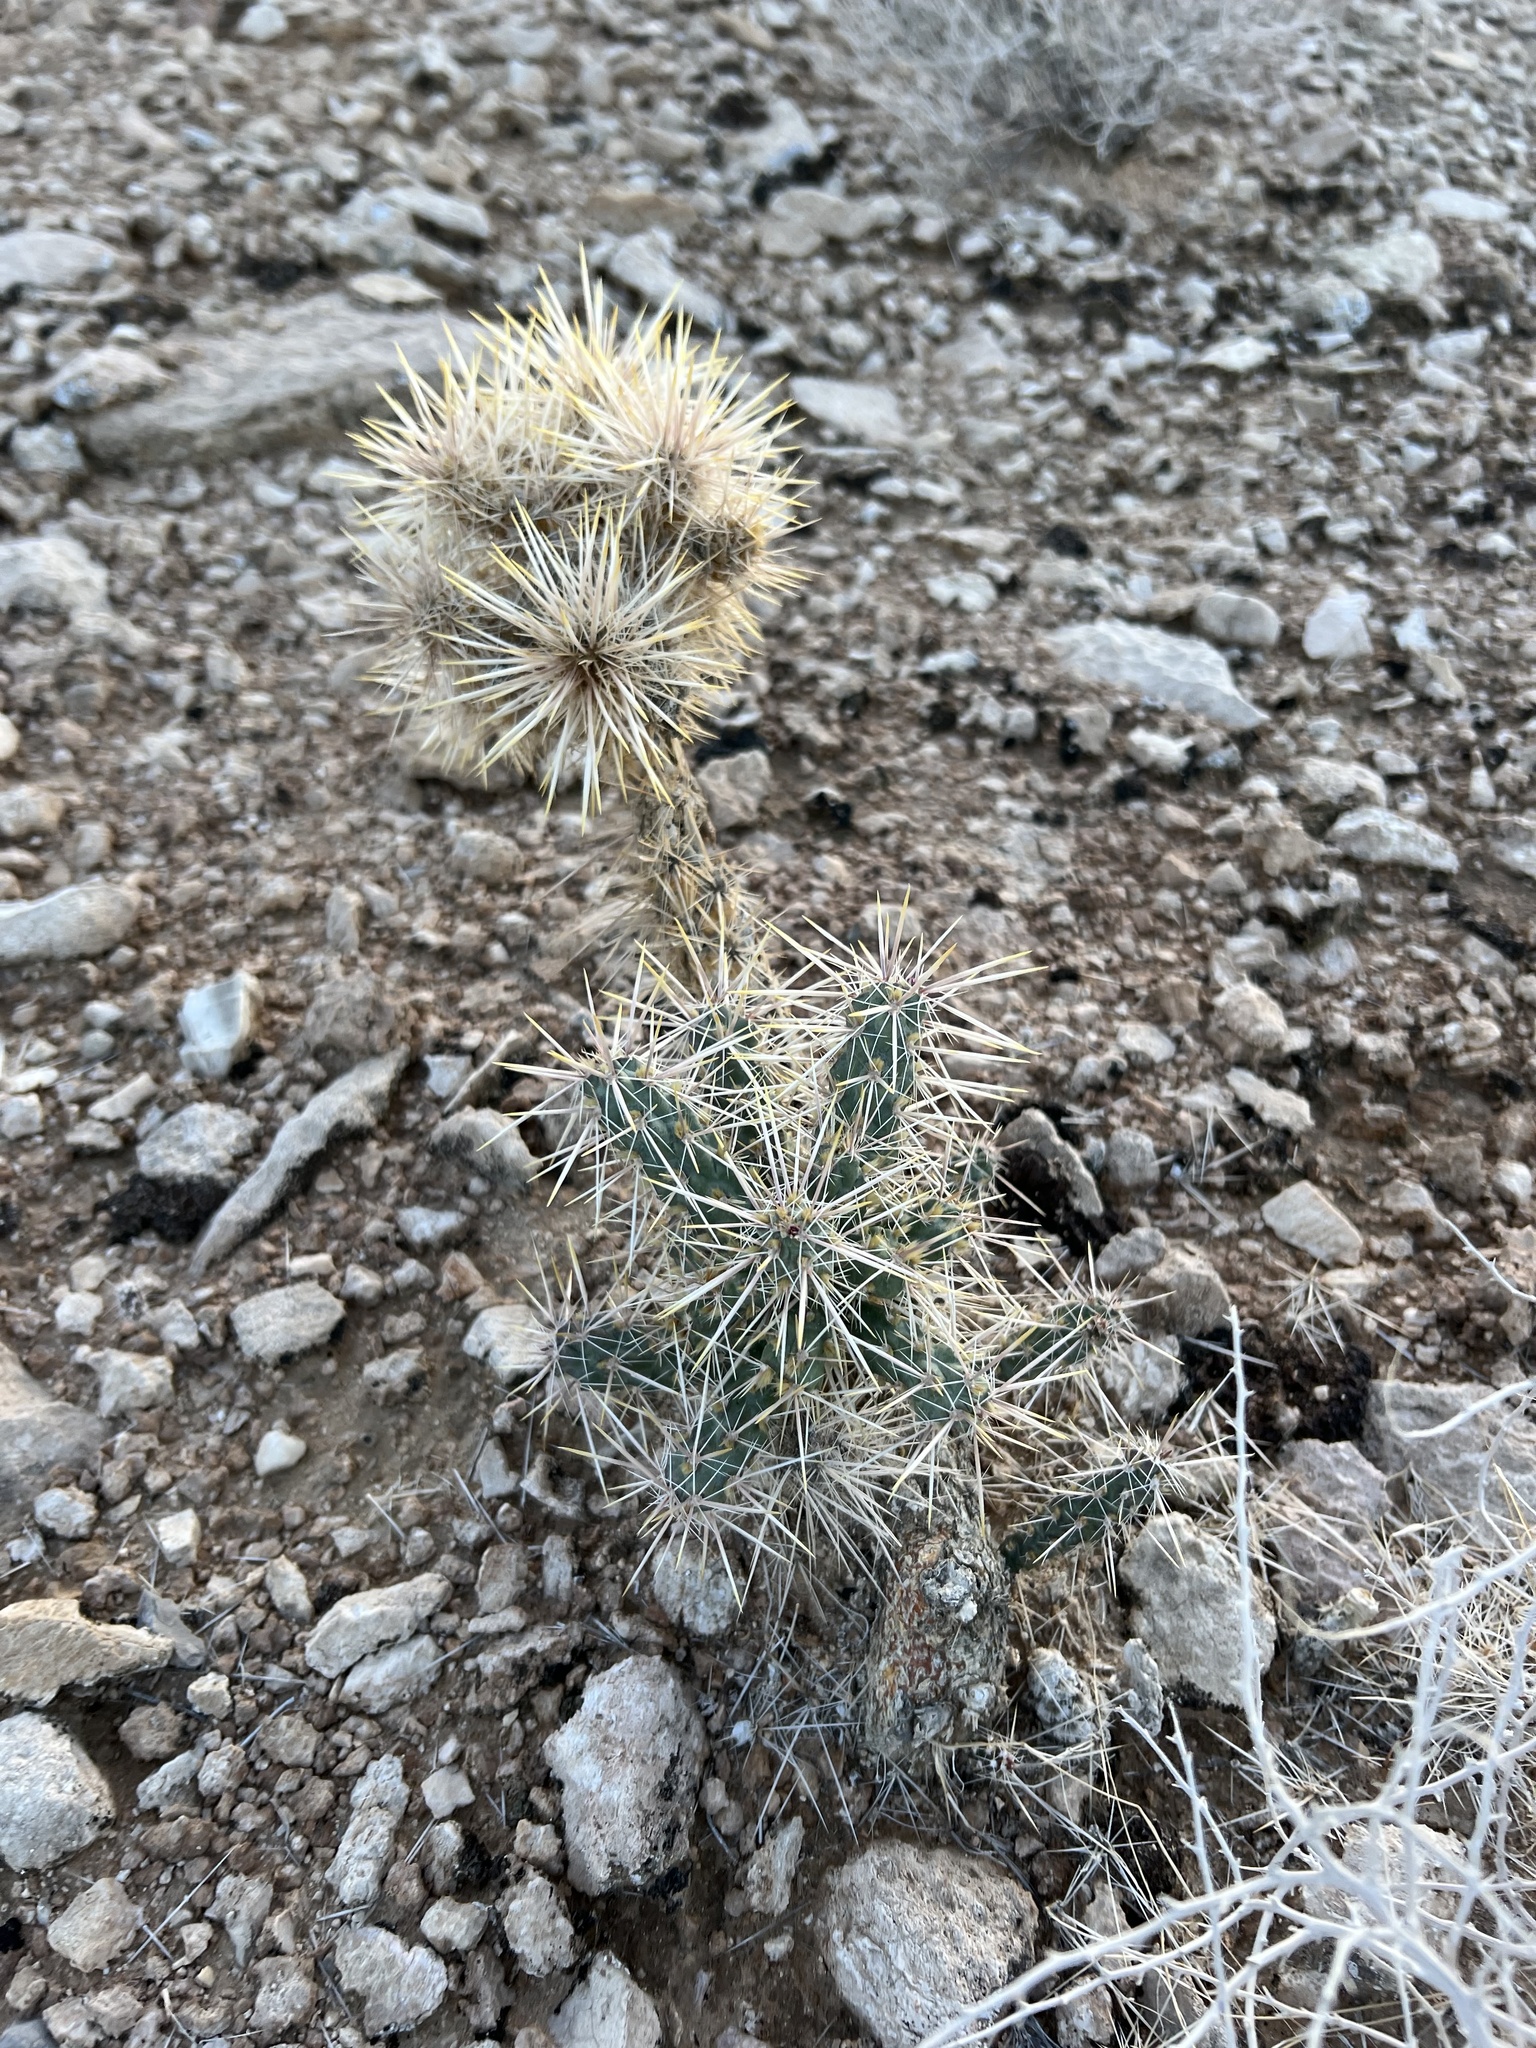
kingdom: Plantae
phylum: Tracheophyta
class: Magnoliopsida
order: Caryophyllales
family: Cactaceae
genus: Cylindropuntia
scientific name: Cylindropuntia echinocarpa
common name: Ground cholla
